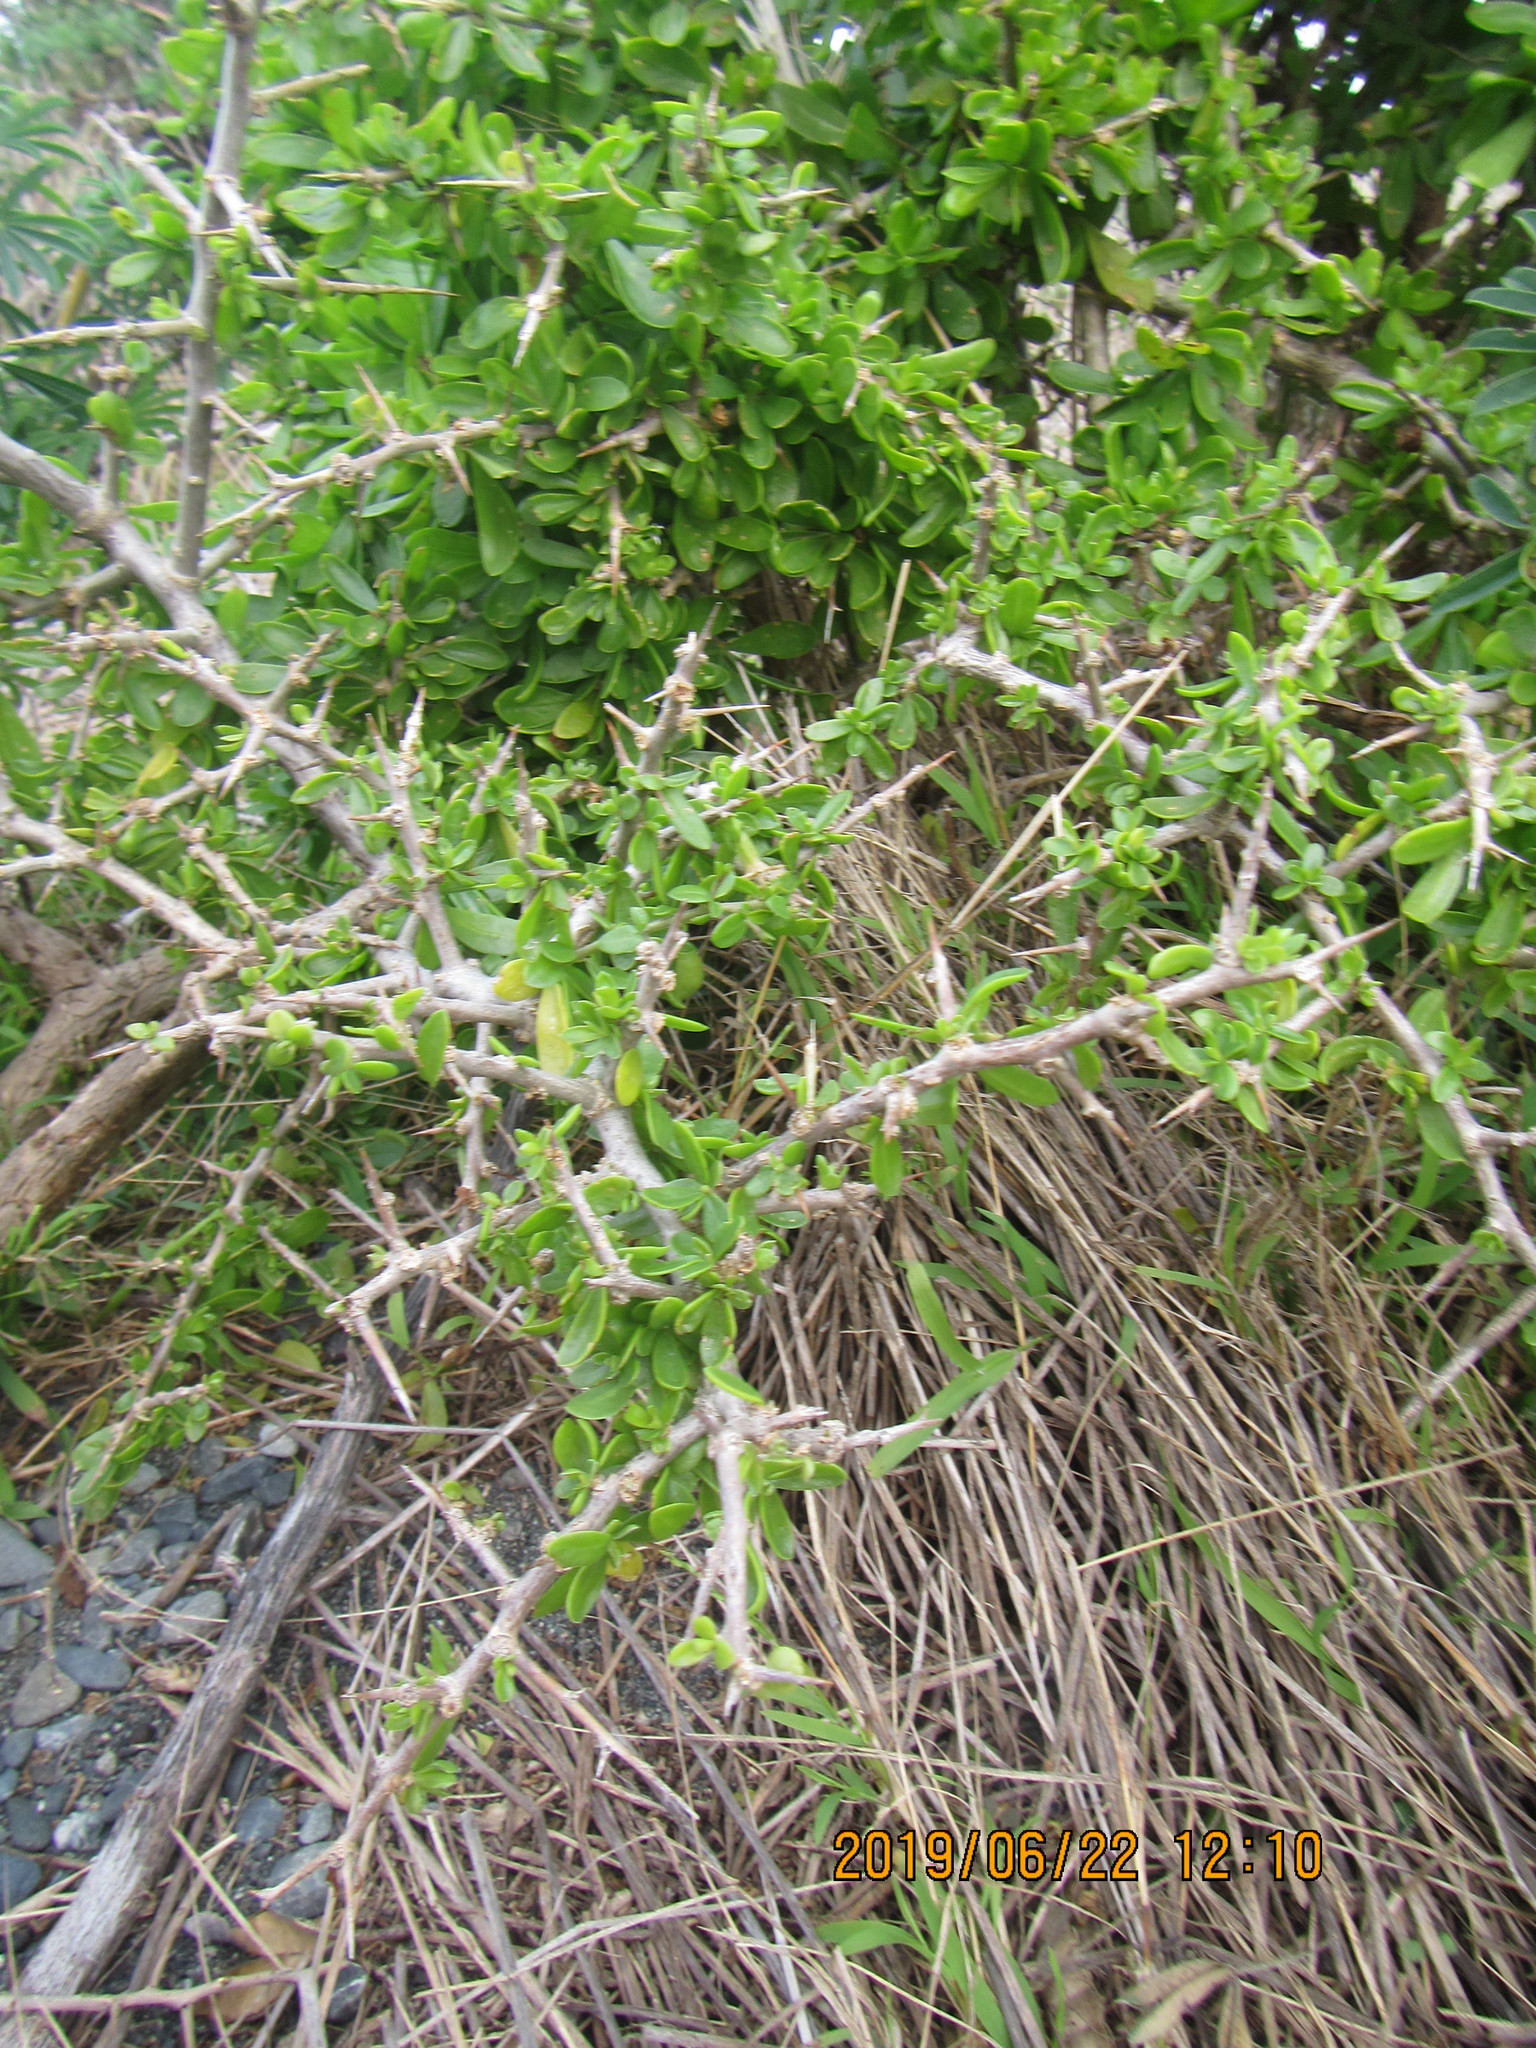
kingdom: Plantae
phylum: Tracheophyta
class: Magnoliopsida
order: Solanales
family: Solanaceae
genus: Lycium
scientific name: Lycium ferocissimum
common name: African boxthorn
